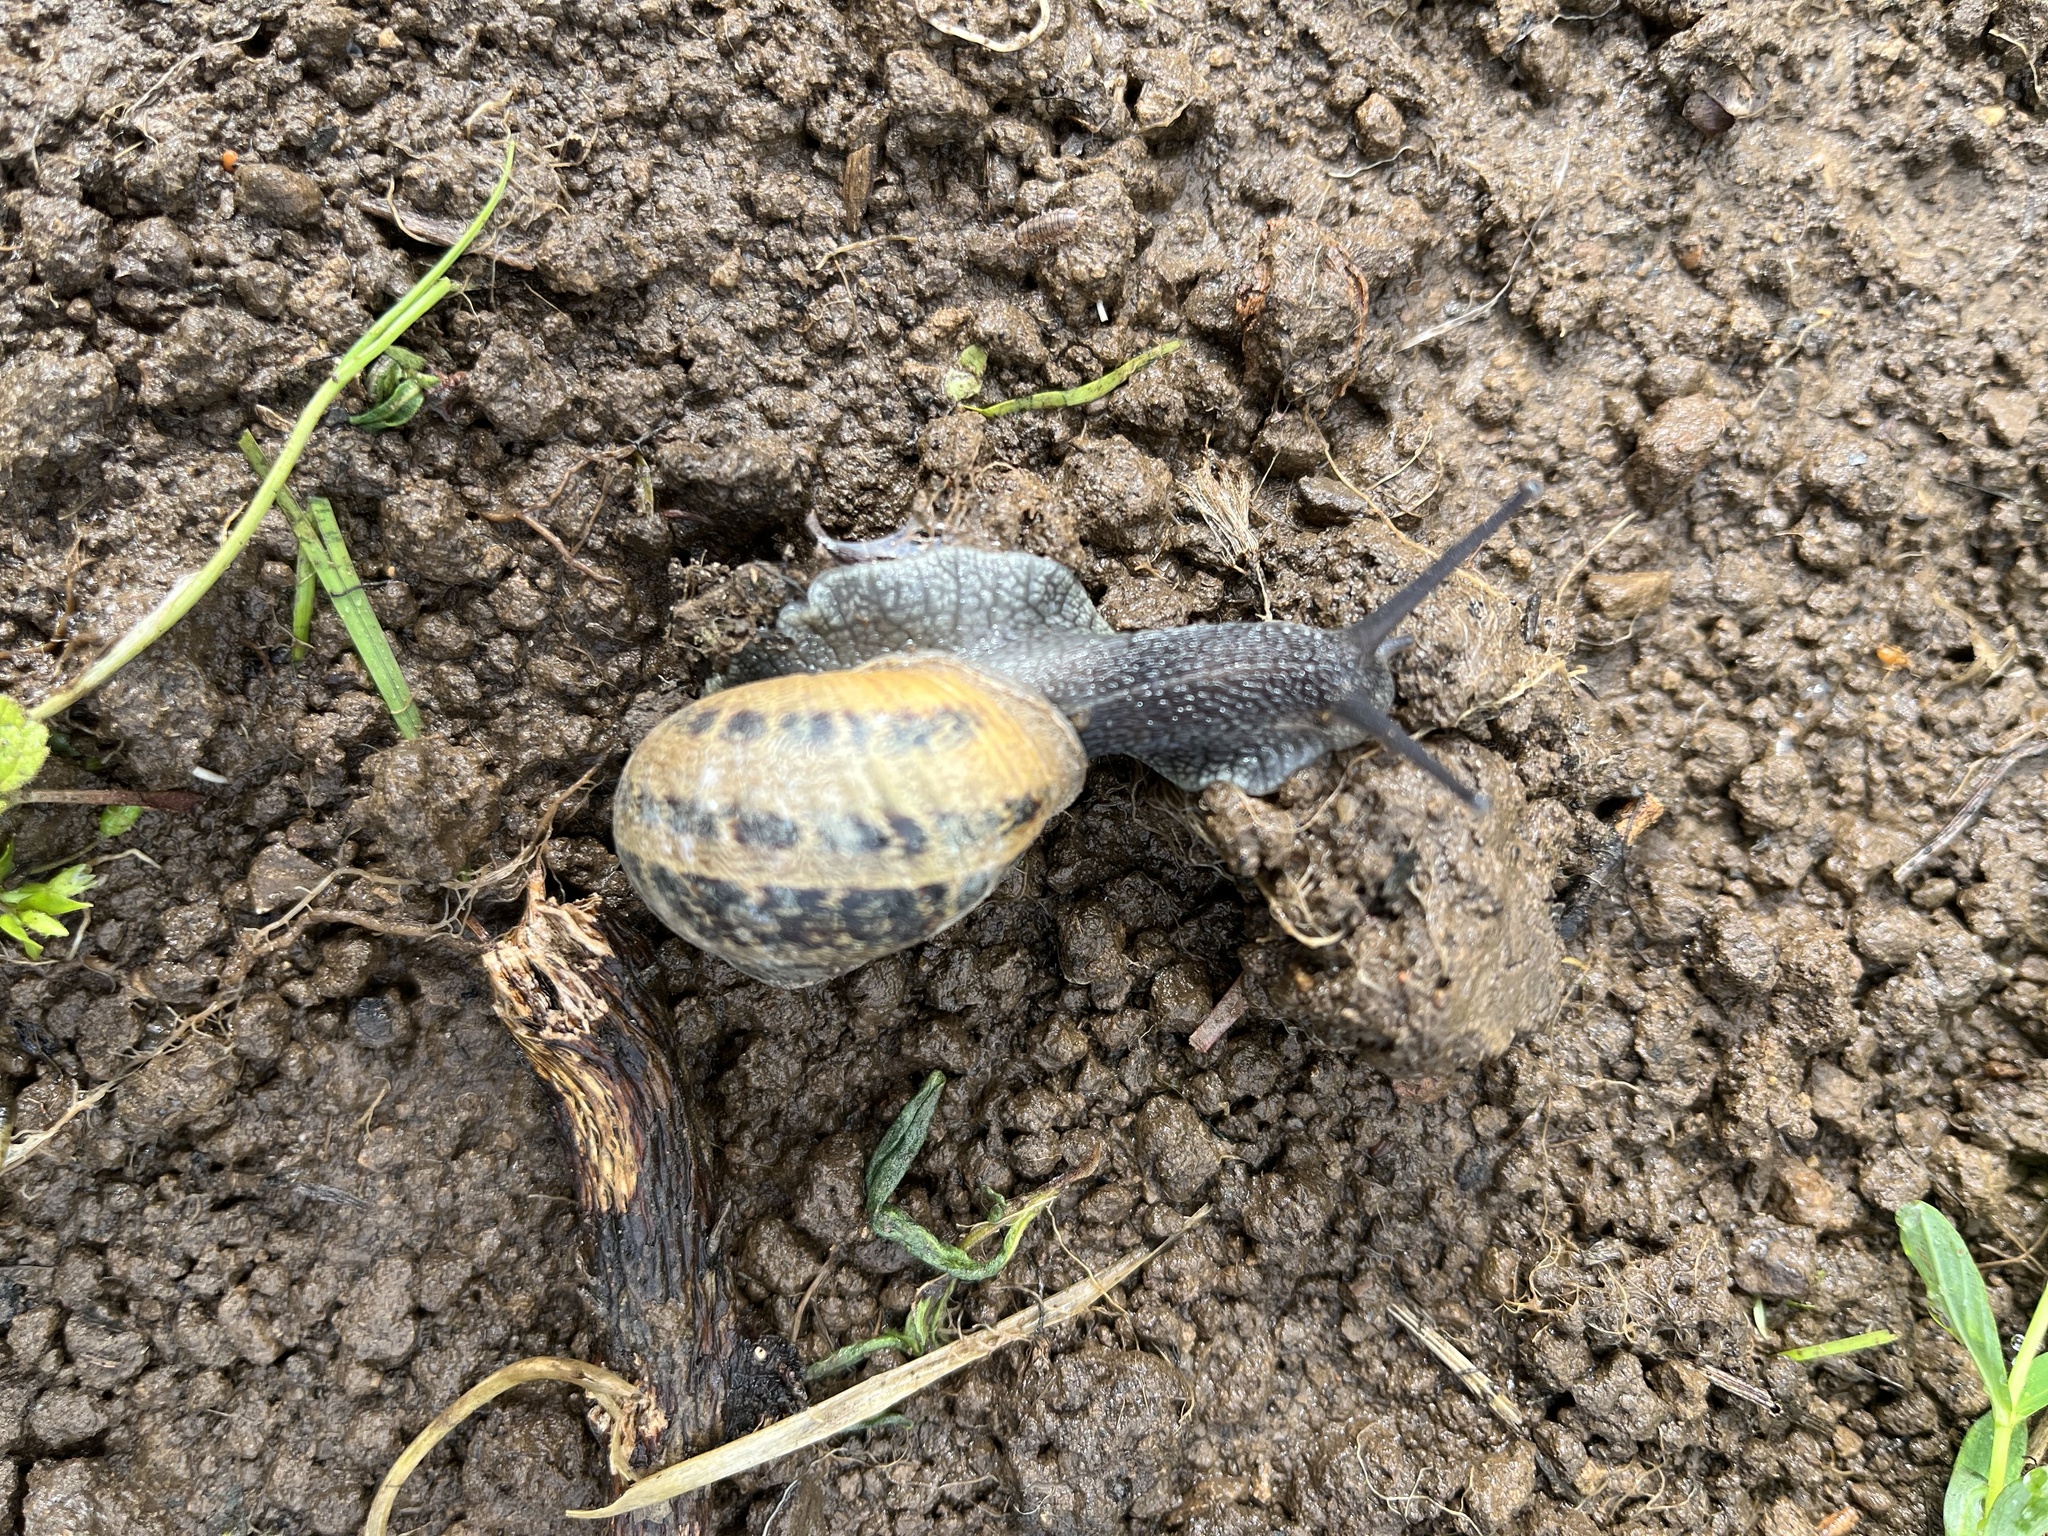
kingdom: Animalia
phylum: Mollusca
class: Gastropoda
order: Stylommatophora
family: Helicidae
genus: Cornu
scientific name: Cornu aspersum
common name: Brown garden snail
